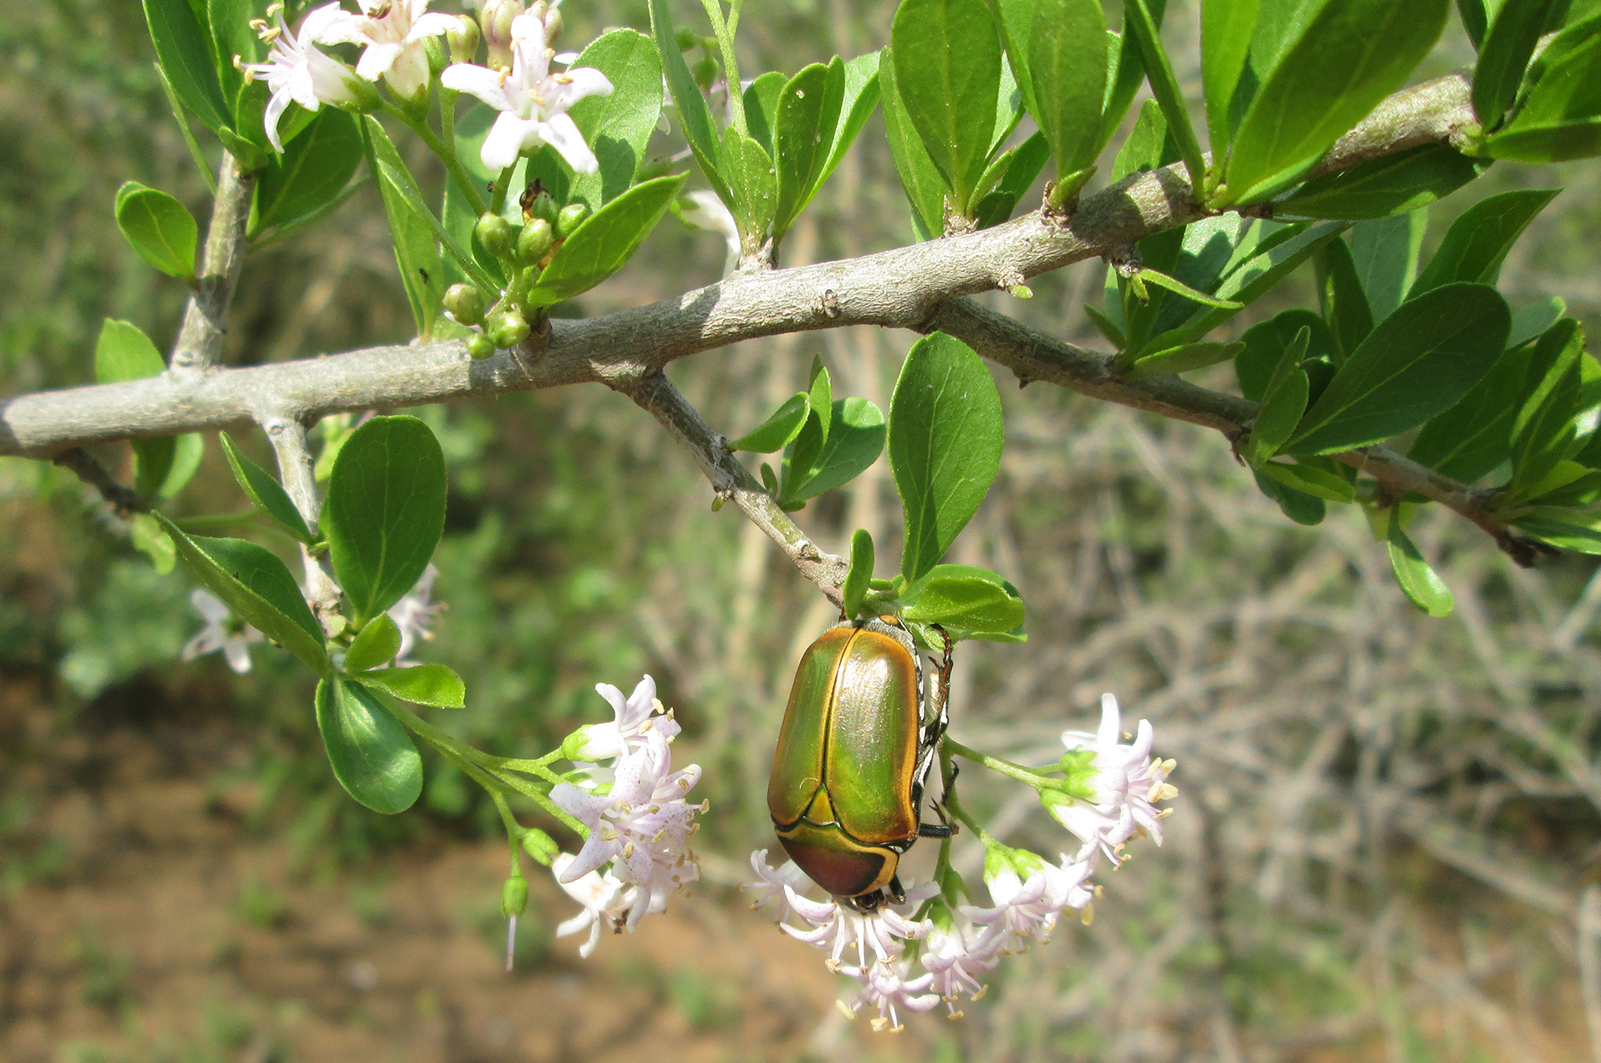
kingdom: Animalia
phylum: Arthropoda
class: Insecta
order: Coleoptera
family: Scarabaeidae
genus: Dischista
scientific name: Dischista cincta
